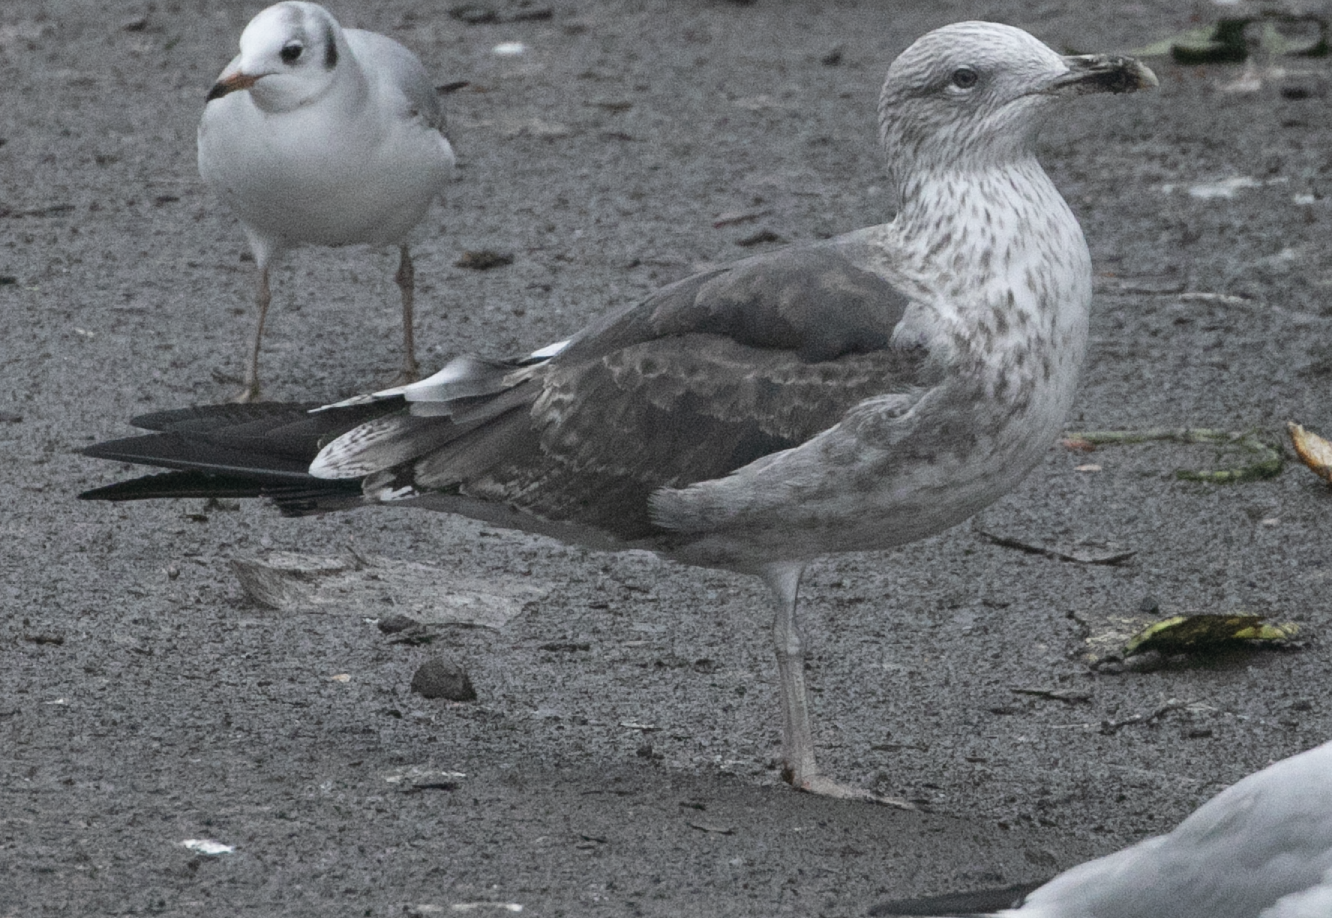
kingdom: Animalia
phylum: Chordata
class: Aves
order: Charadriiformes
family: Laridae
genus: Larus
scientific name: Larus fuscus
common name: Lesser black-backed gull
